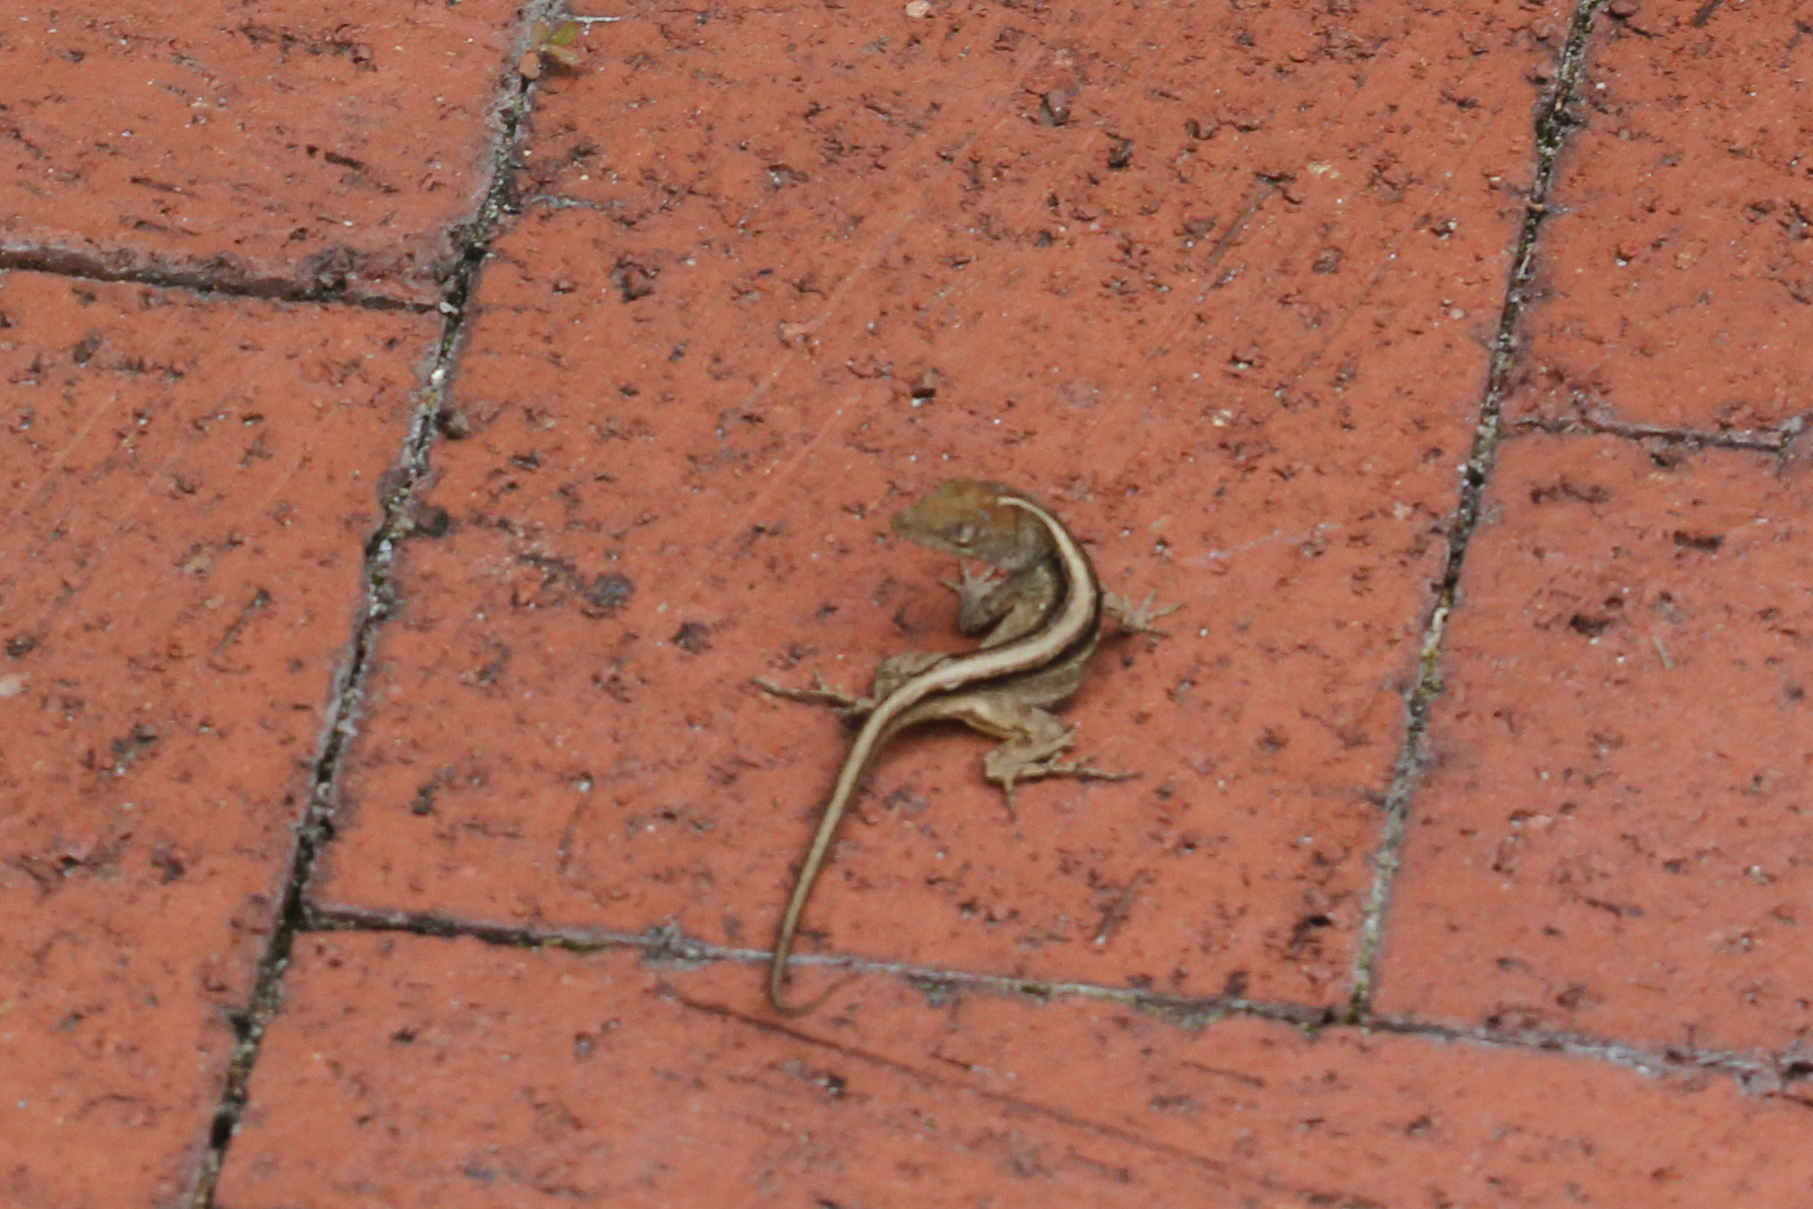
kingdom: Animalia
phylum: Chordata
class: Squamata
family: Dactyloidae
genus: Anolis
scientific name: Anolis sagrei
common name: Brown anole
